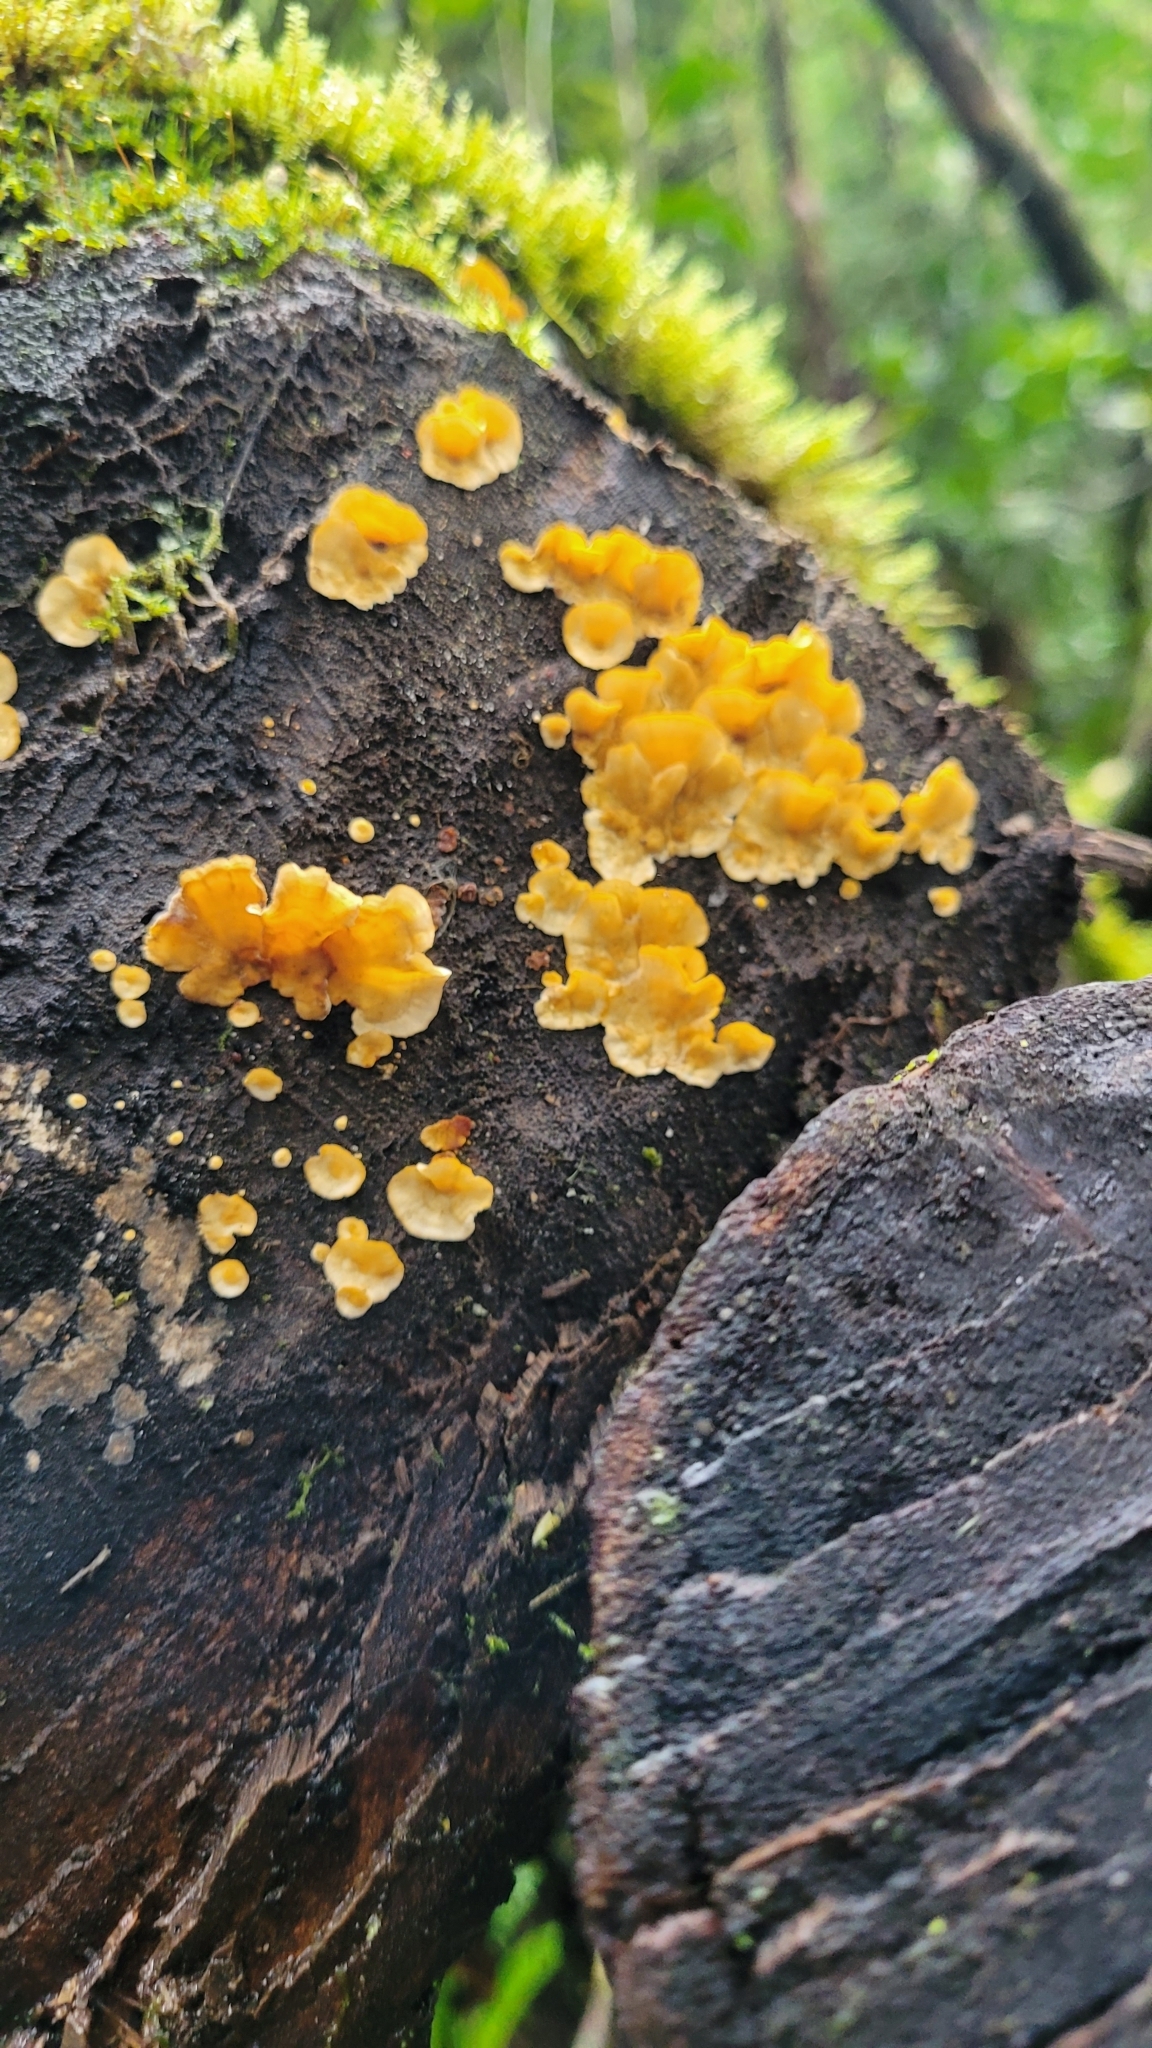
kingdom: Fungi
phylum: Basidiomycota
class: Agaricomycetes
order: Russulales
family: Stereaceae
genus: Stereum
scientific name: Stereum complicatum
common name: Crowded parchment
